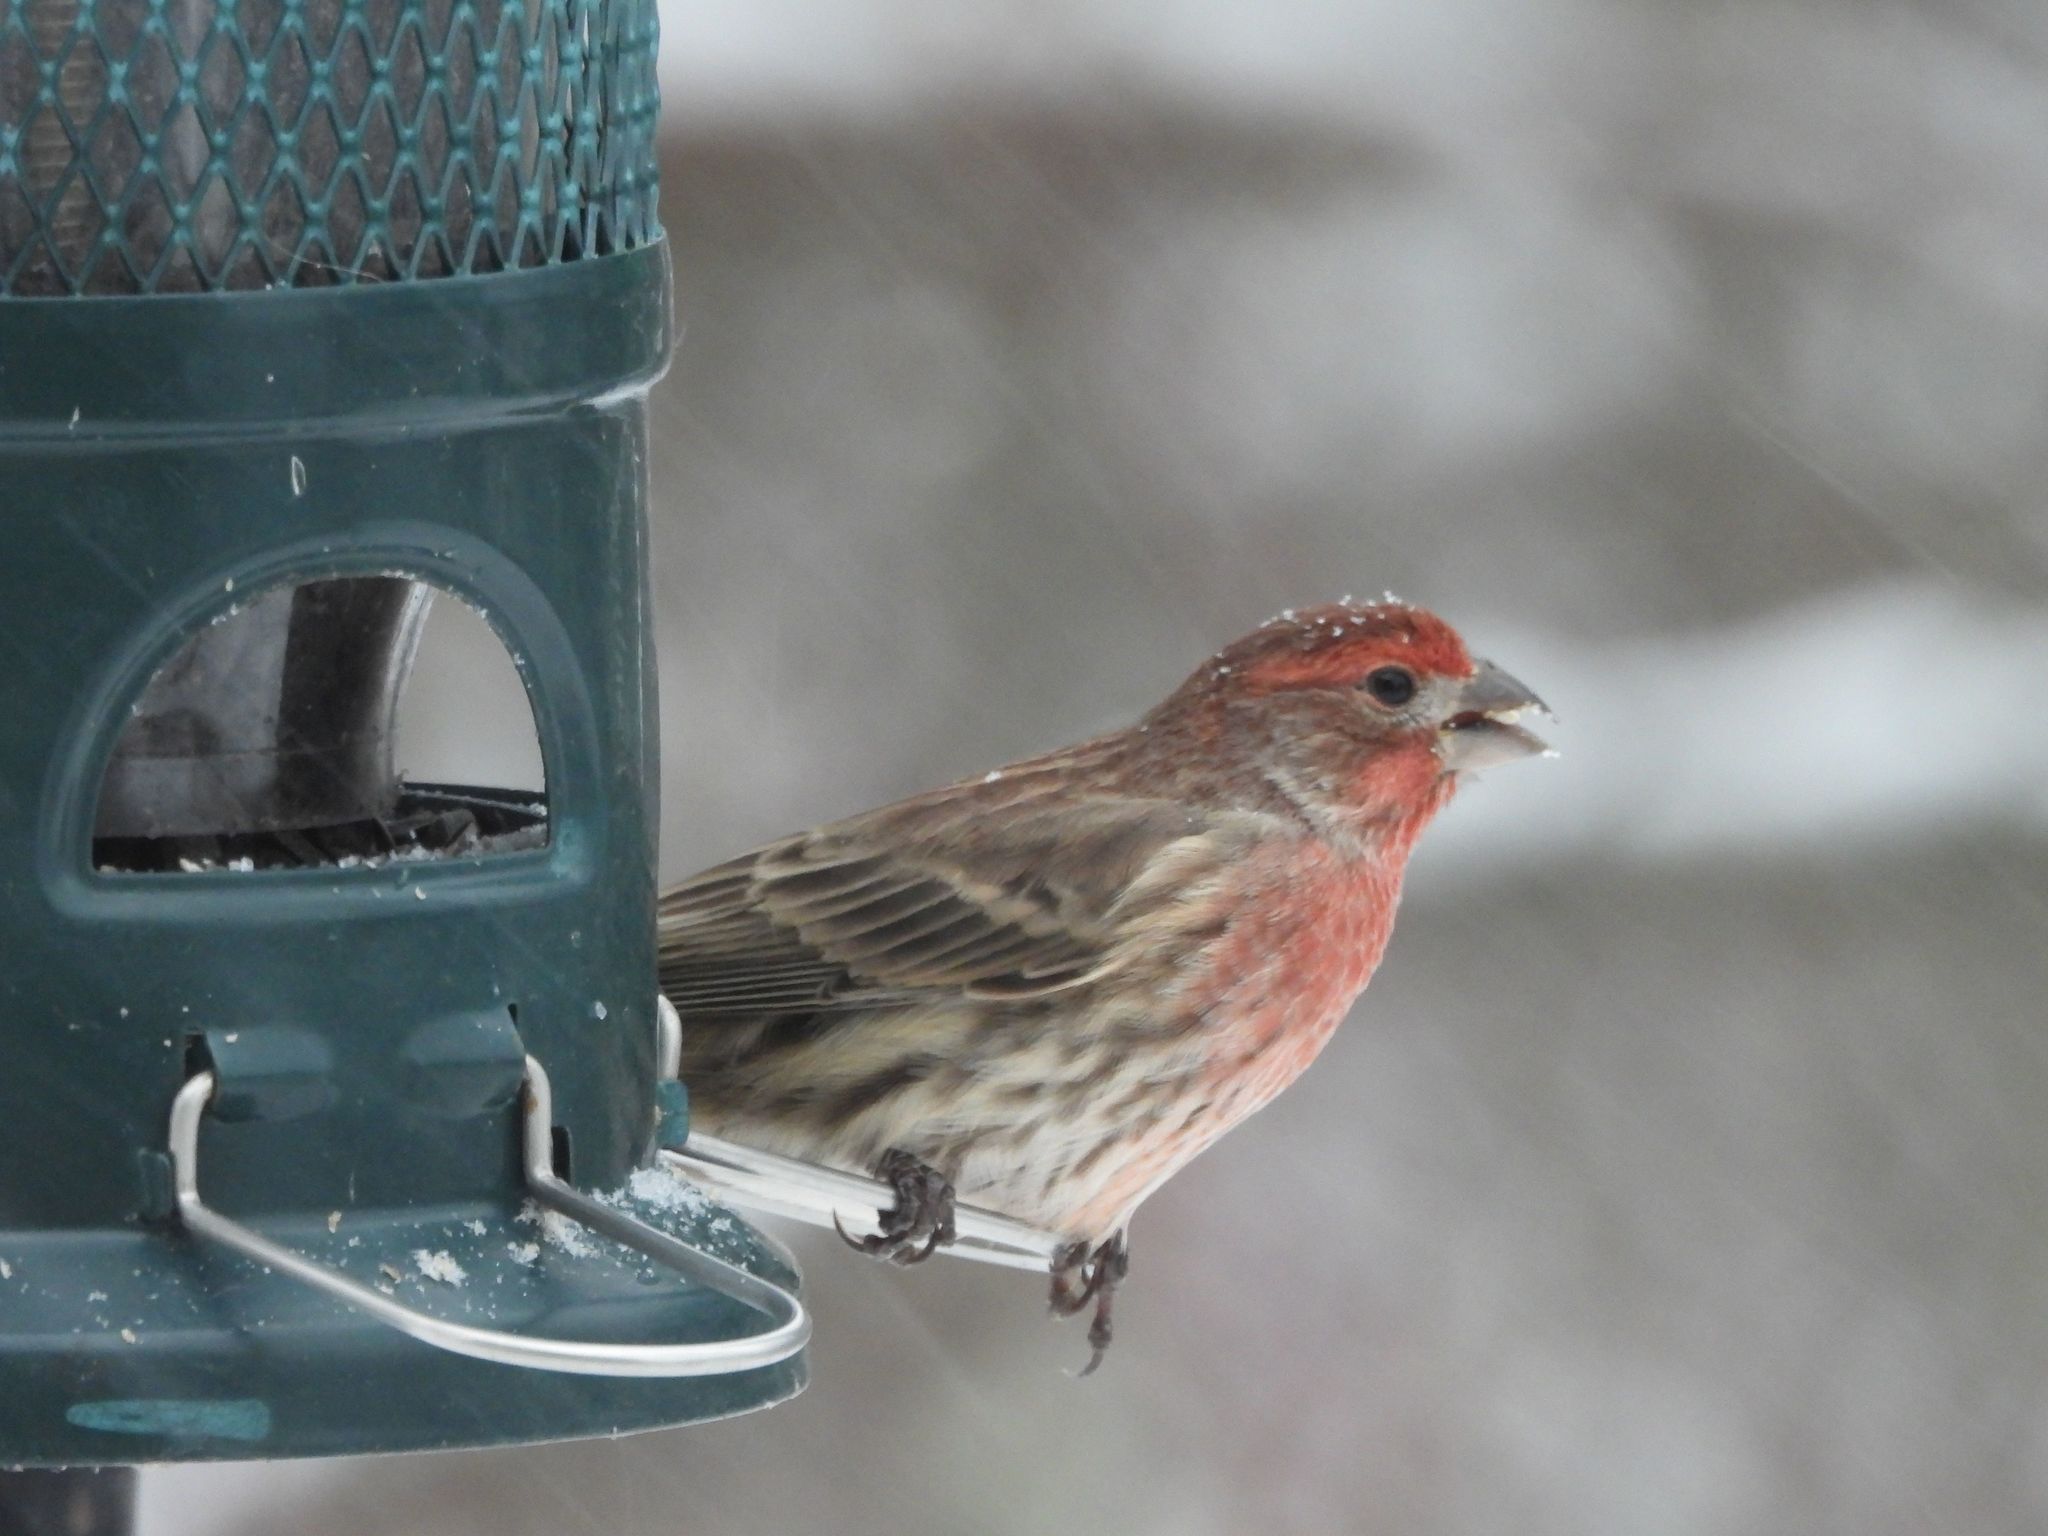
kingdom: Animalia
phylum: Chordata
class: Aves
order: Passeriformes
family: Fringillidae
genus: Haemorhous
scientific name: Haemorhous mexicanus
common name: House finch
